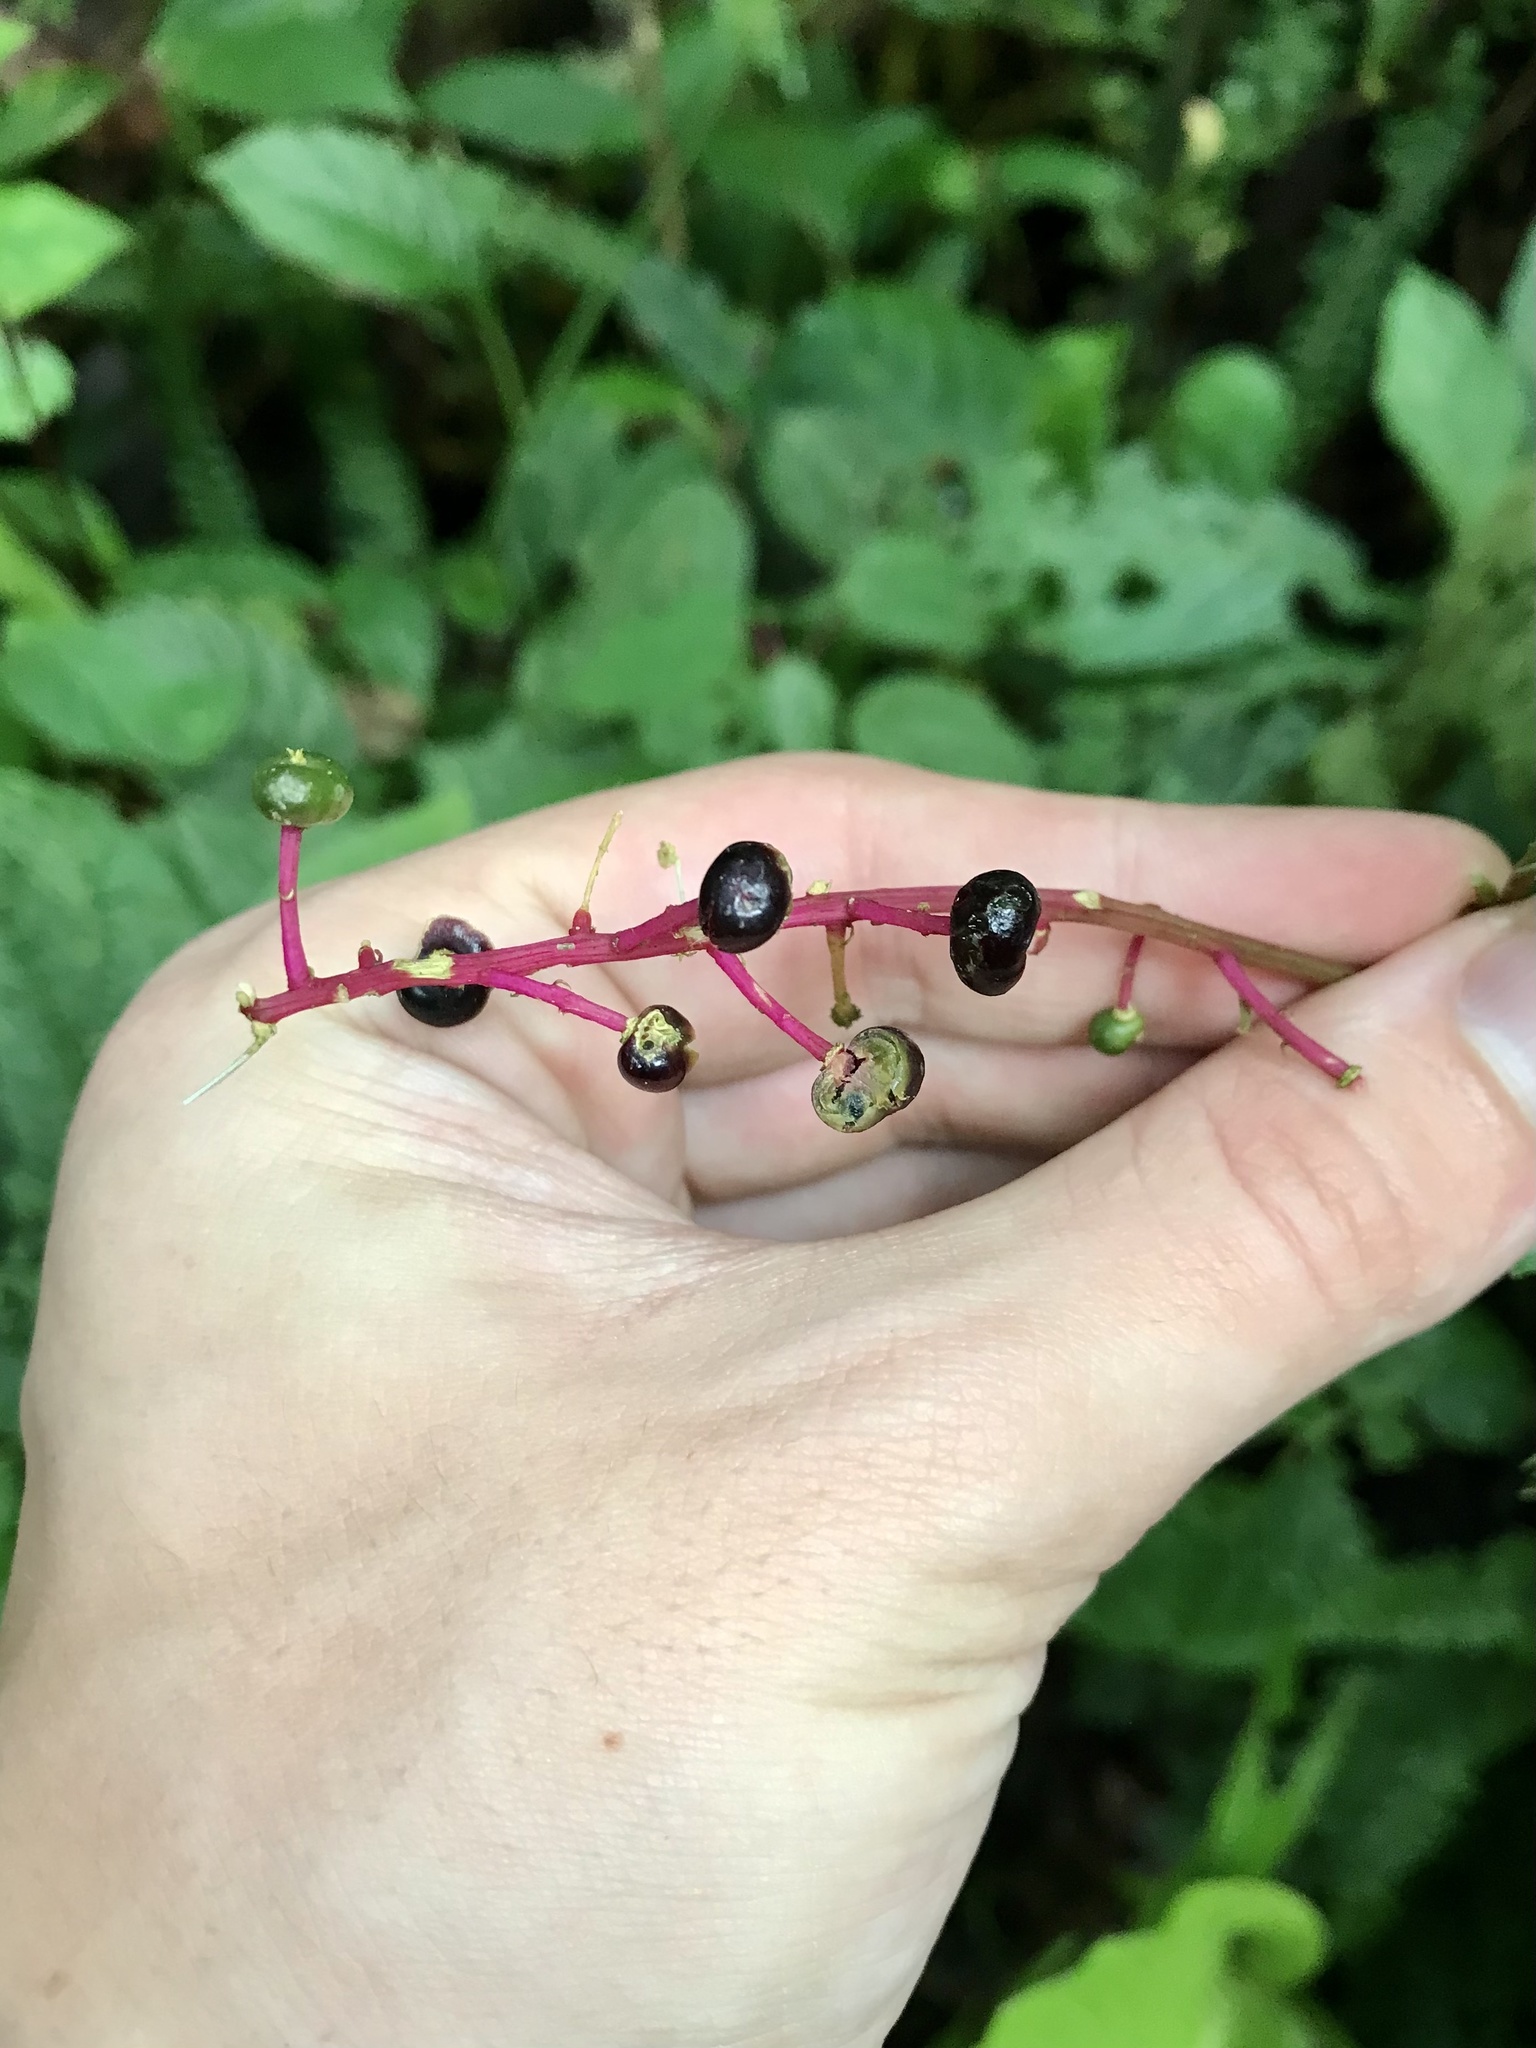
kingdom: Plantae
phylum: Tracheophyta
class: Magnoliopsida
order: Caryophyllales
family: Phytolaccaceae
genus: Phytolacca
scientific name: Phytolacca rivinoides
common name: Venezuelan pokeweed
